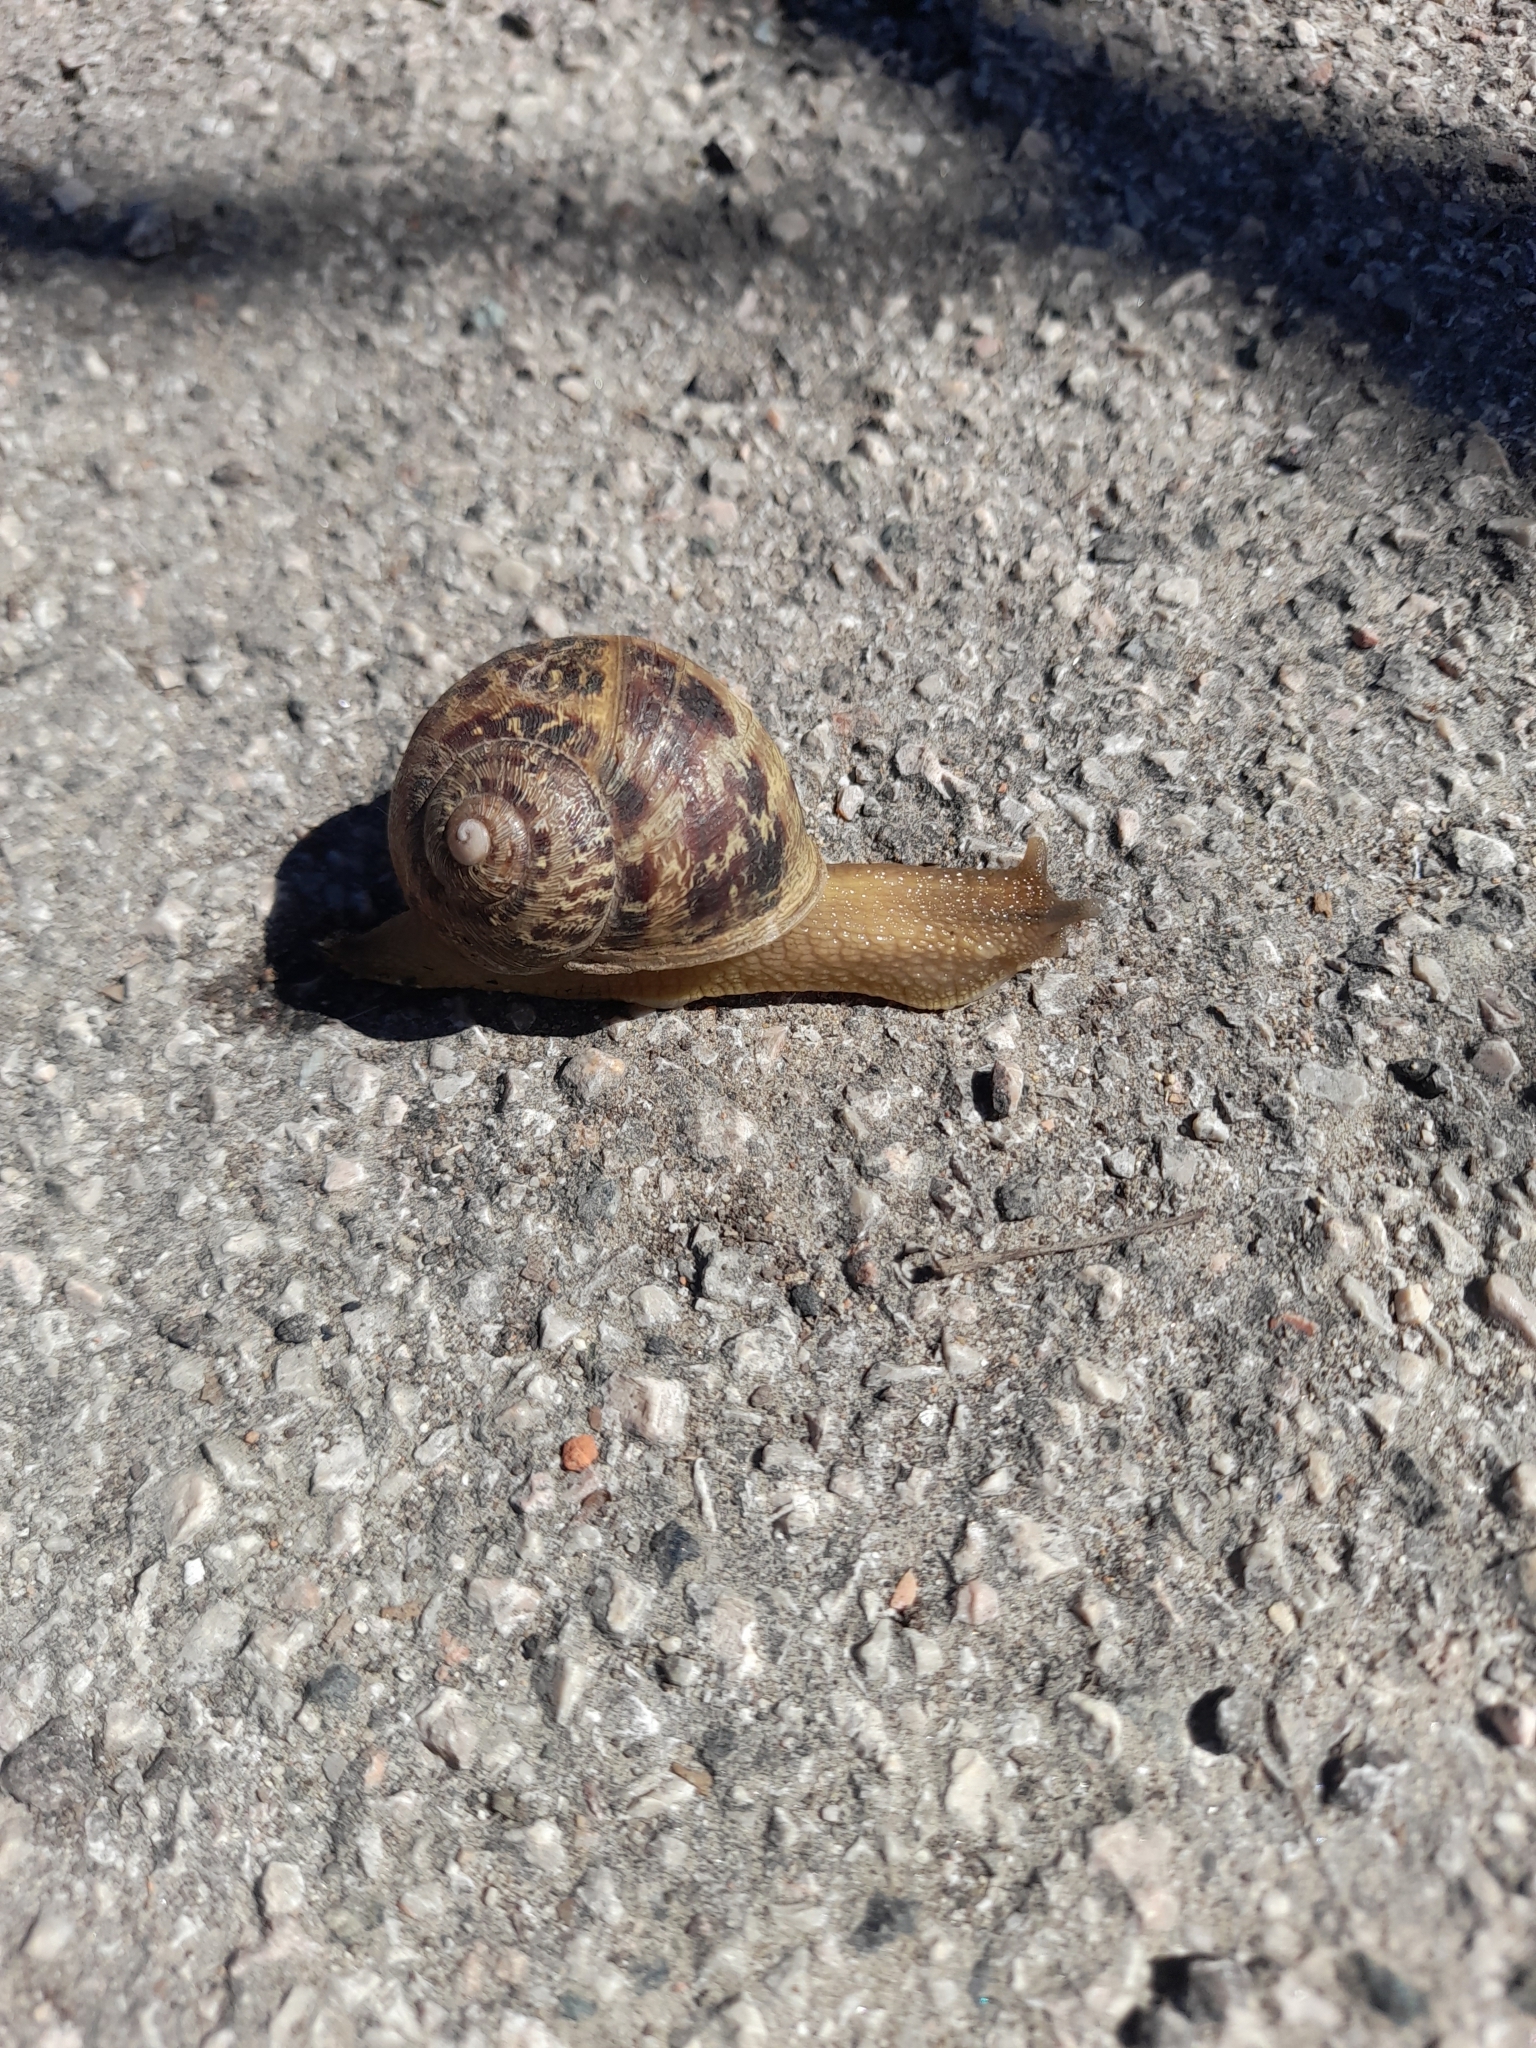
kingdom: Animalia
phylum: Mollusca
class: Gastropoda
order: Stylommatophora
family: Helicidae
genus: Cornu
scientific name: Cornu aspersum
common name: Brown garden snail
